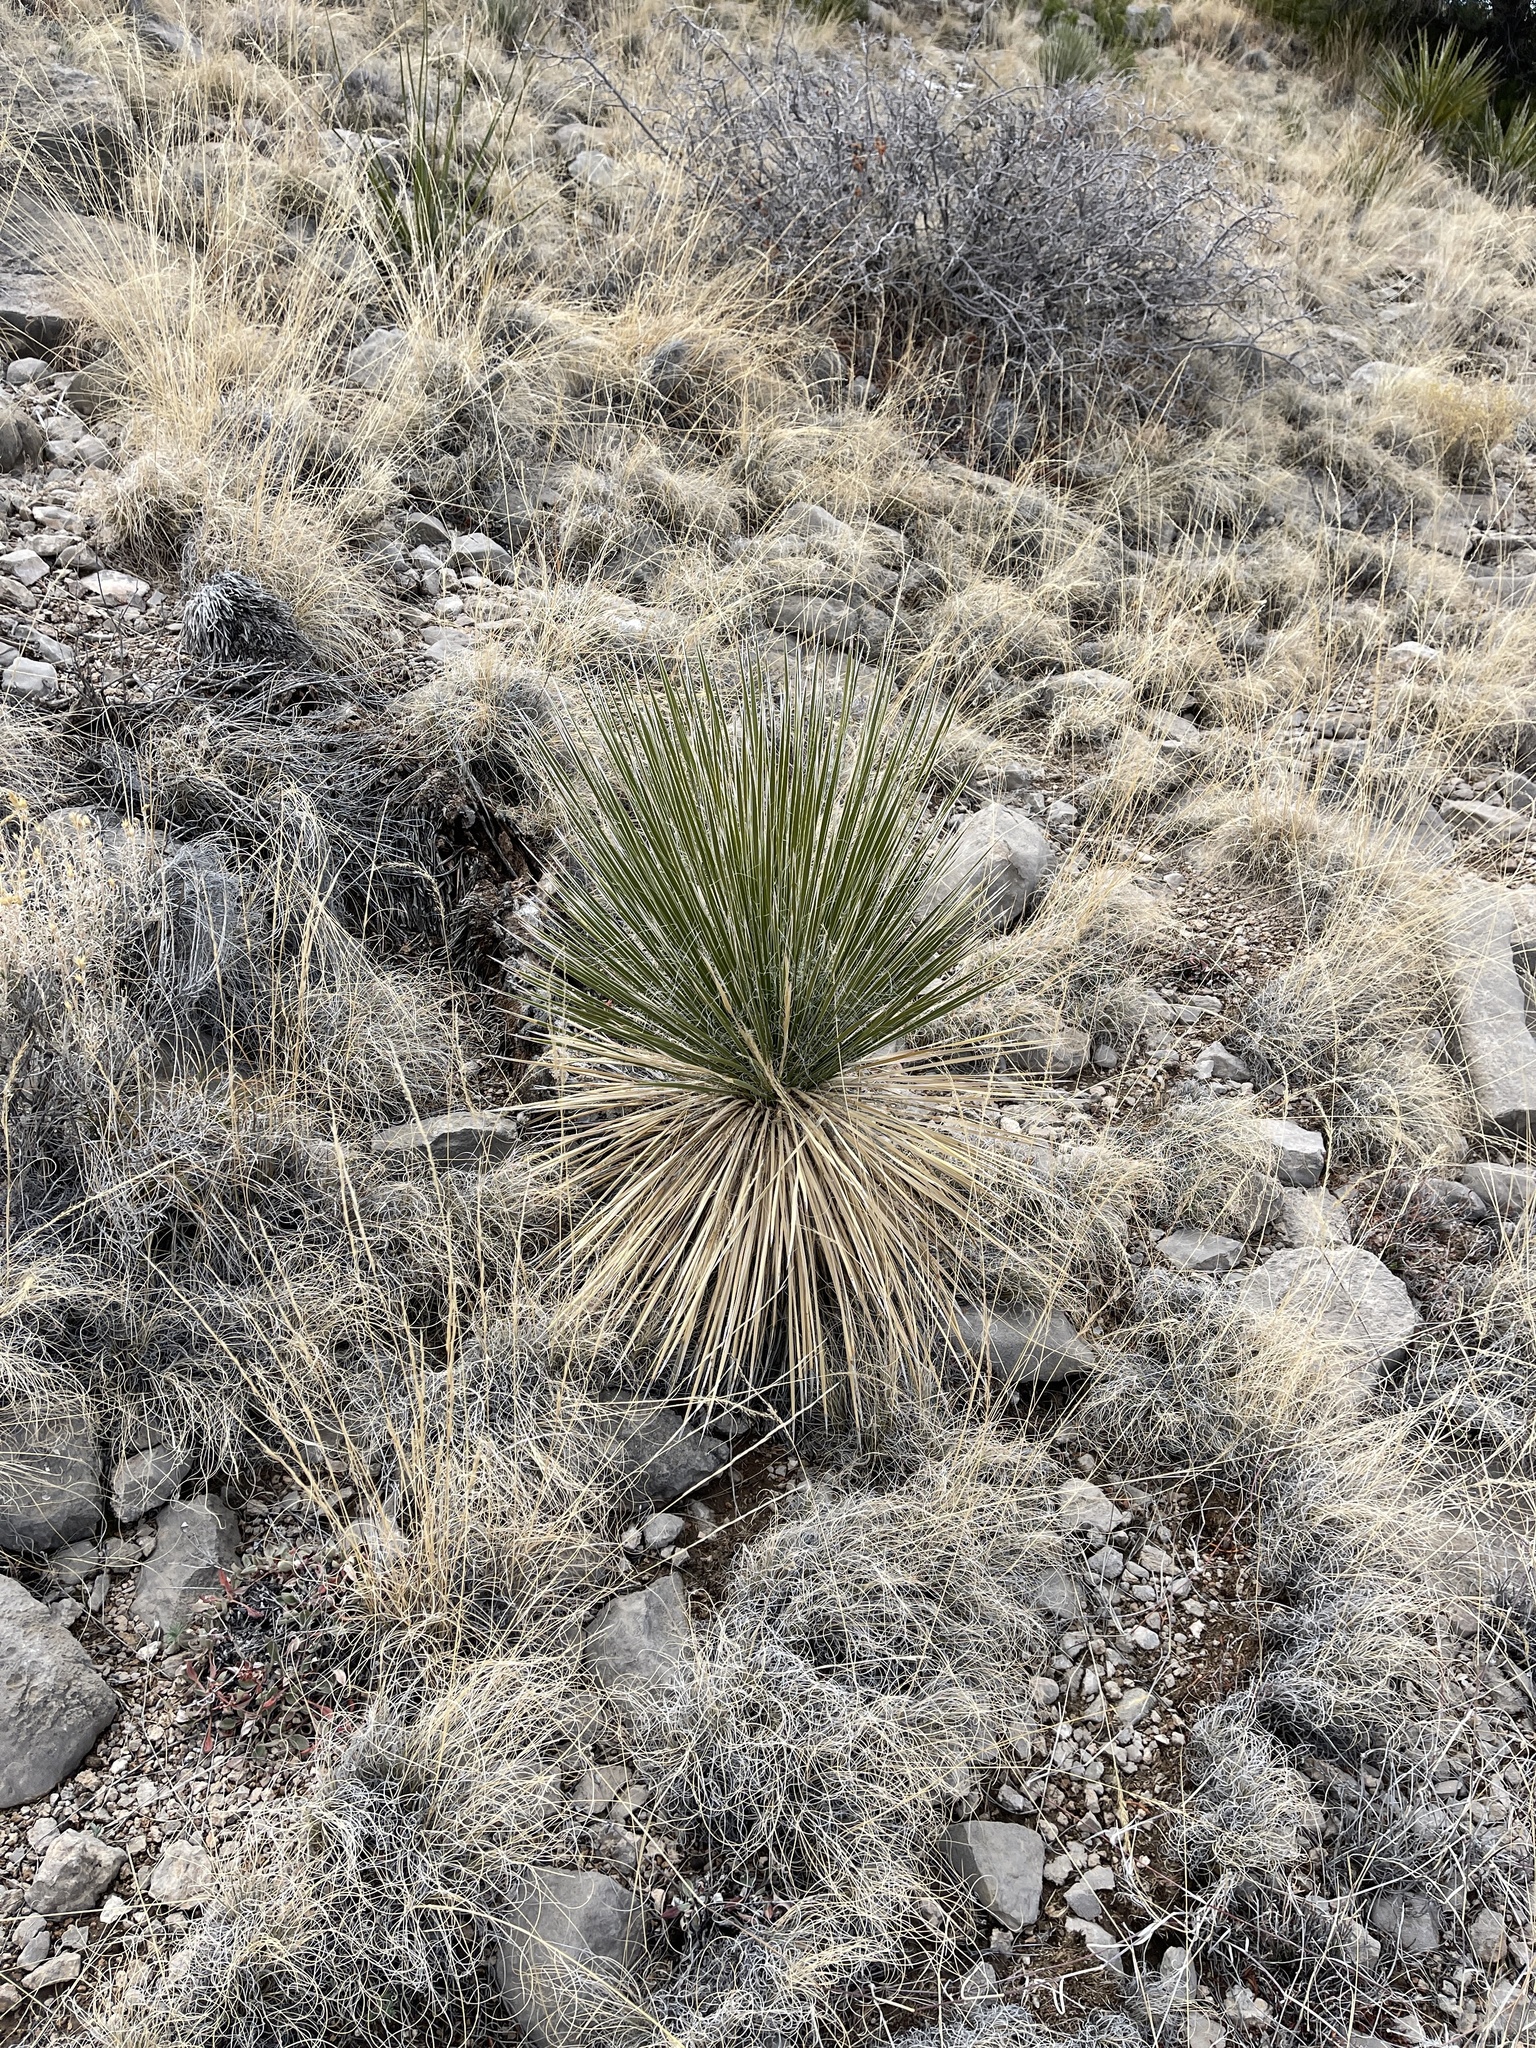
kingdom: Plantae
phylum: Tracheophyta
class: Liliopsida
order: Asparagales
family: Asparagaceae
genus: Yucca
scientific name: Yucca elata
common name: Palmella
